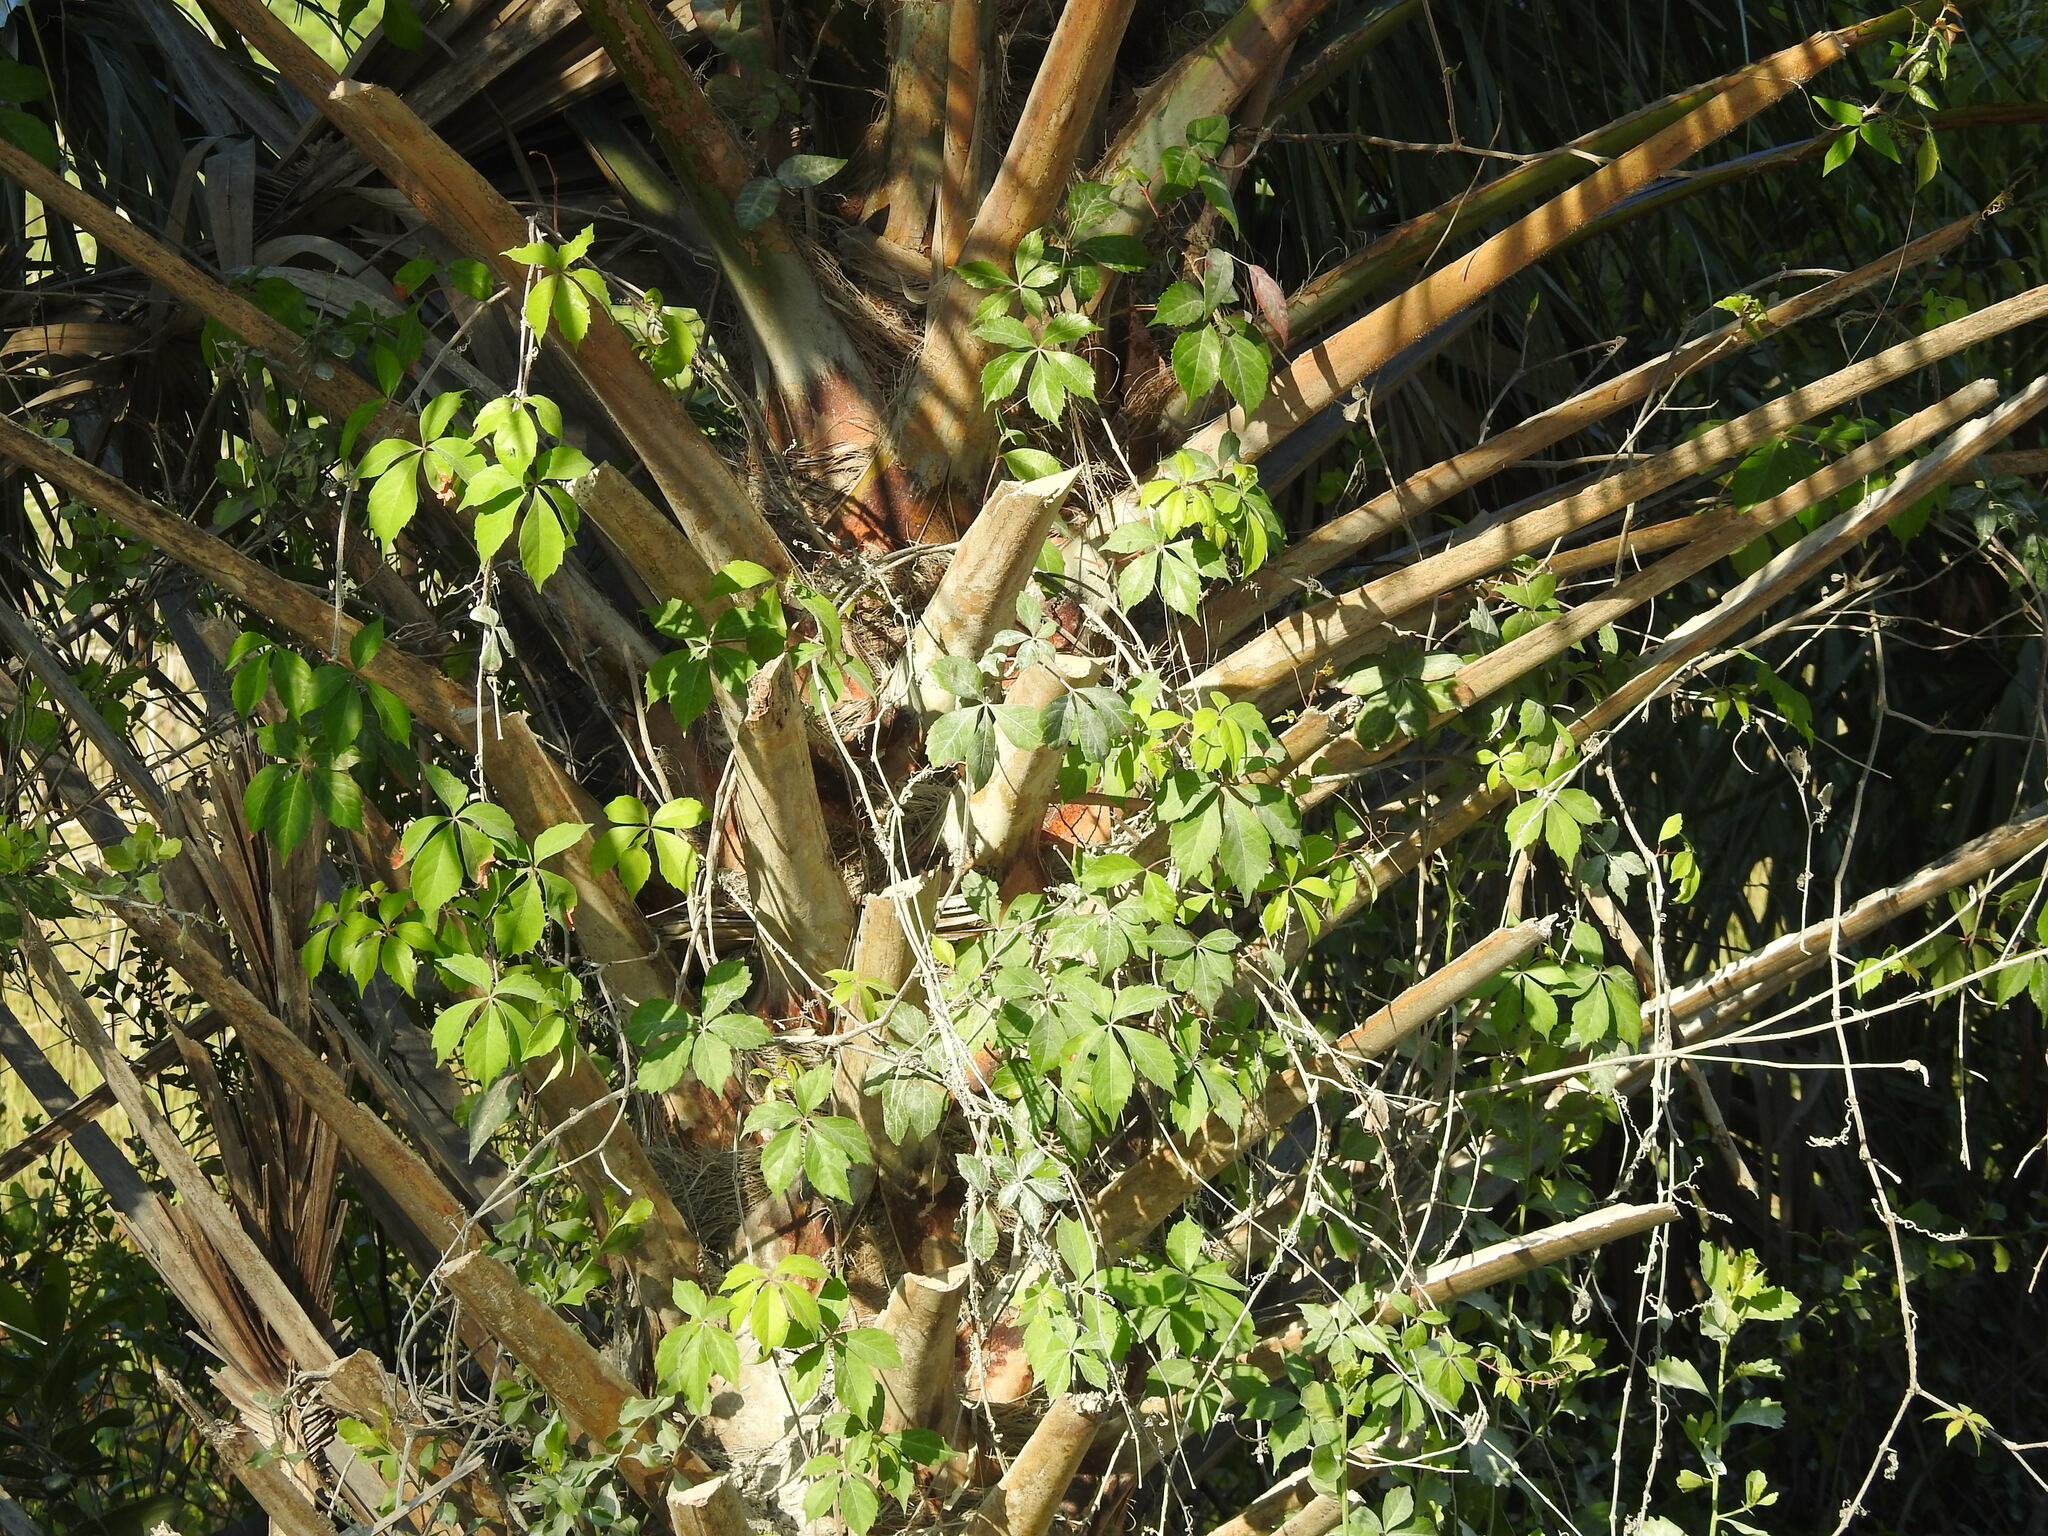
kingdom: Plantae
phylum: Tracheophyta
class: Magnoliopsida
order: Vitales
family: Vitaceae
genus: Parthenocissus
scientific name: Parthenocissus quinquefolia
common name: Virginia-creeper
